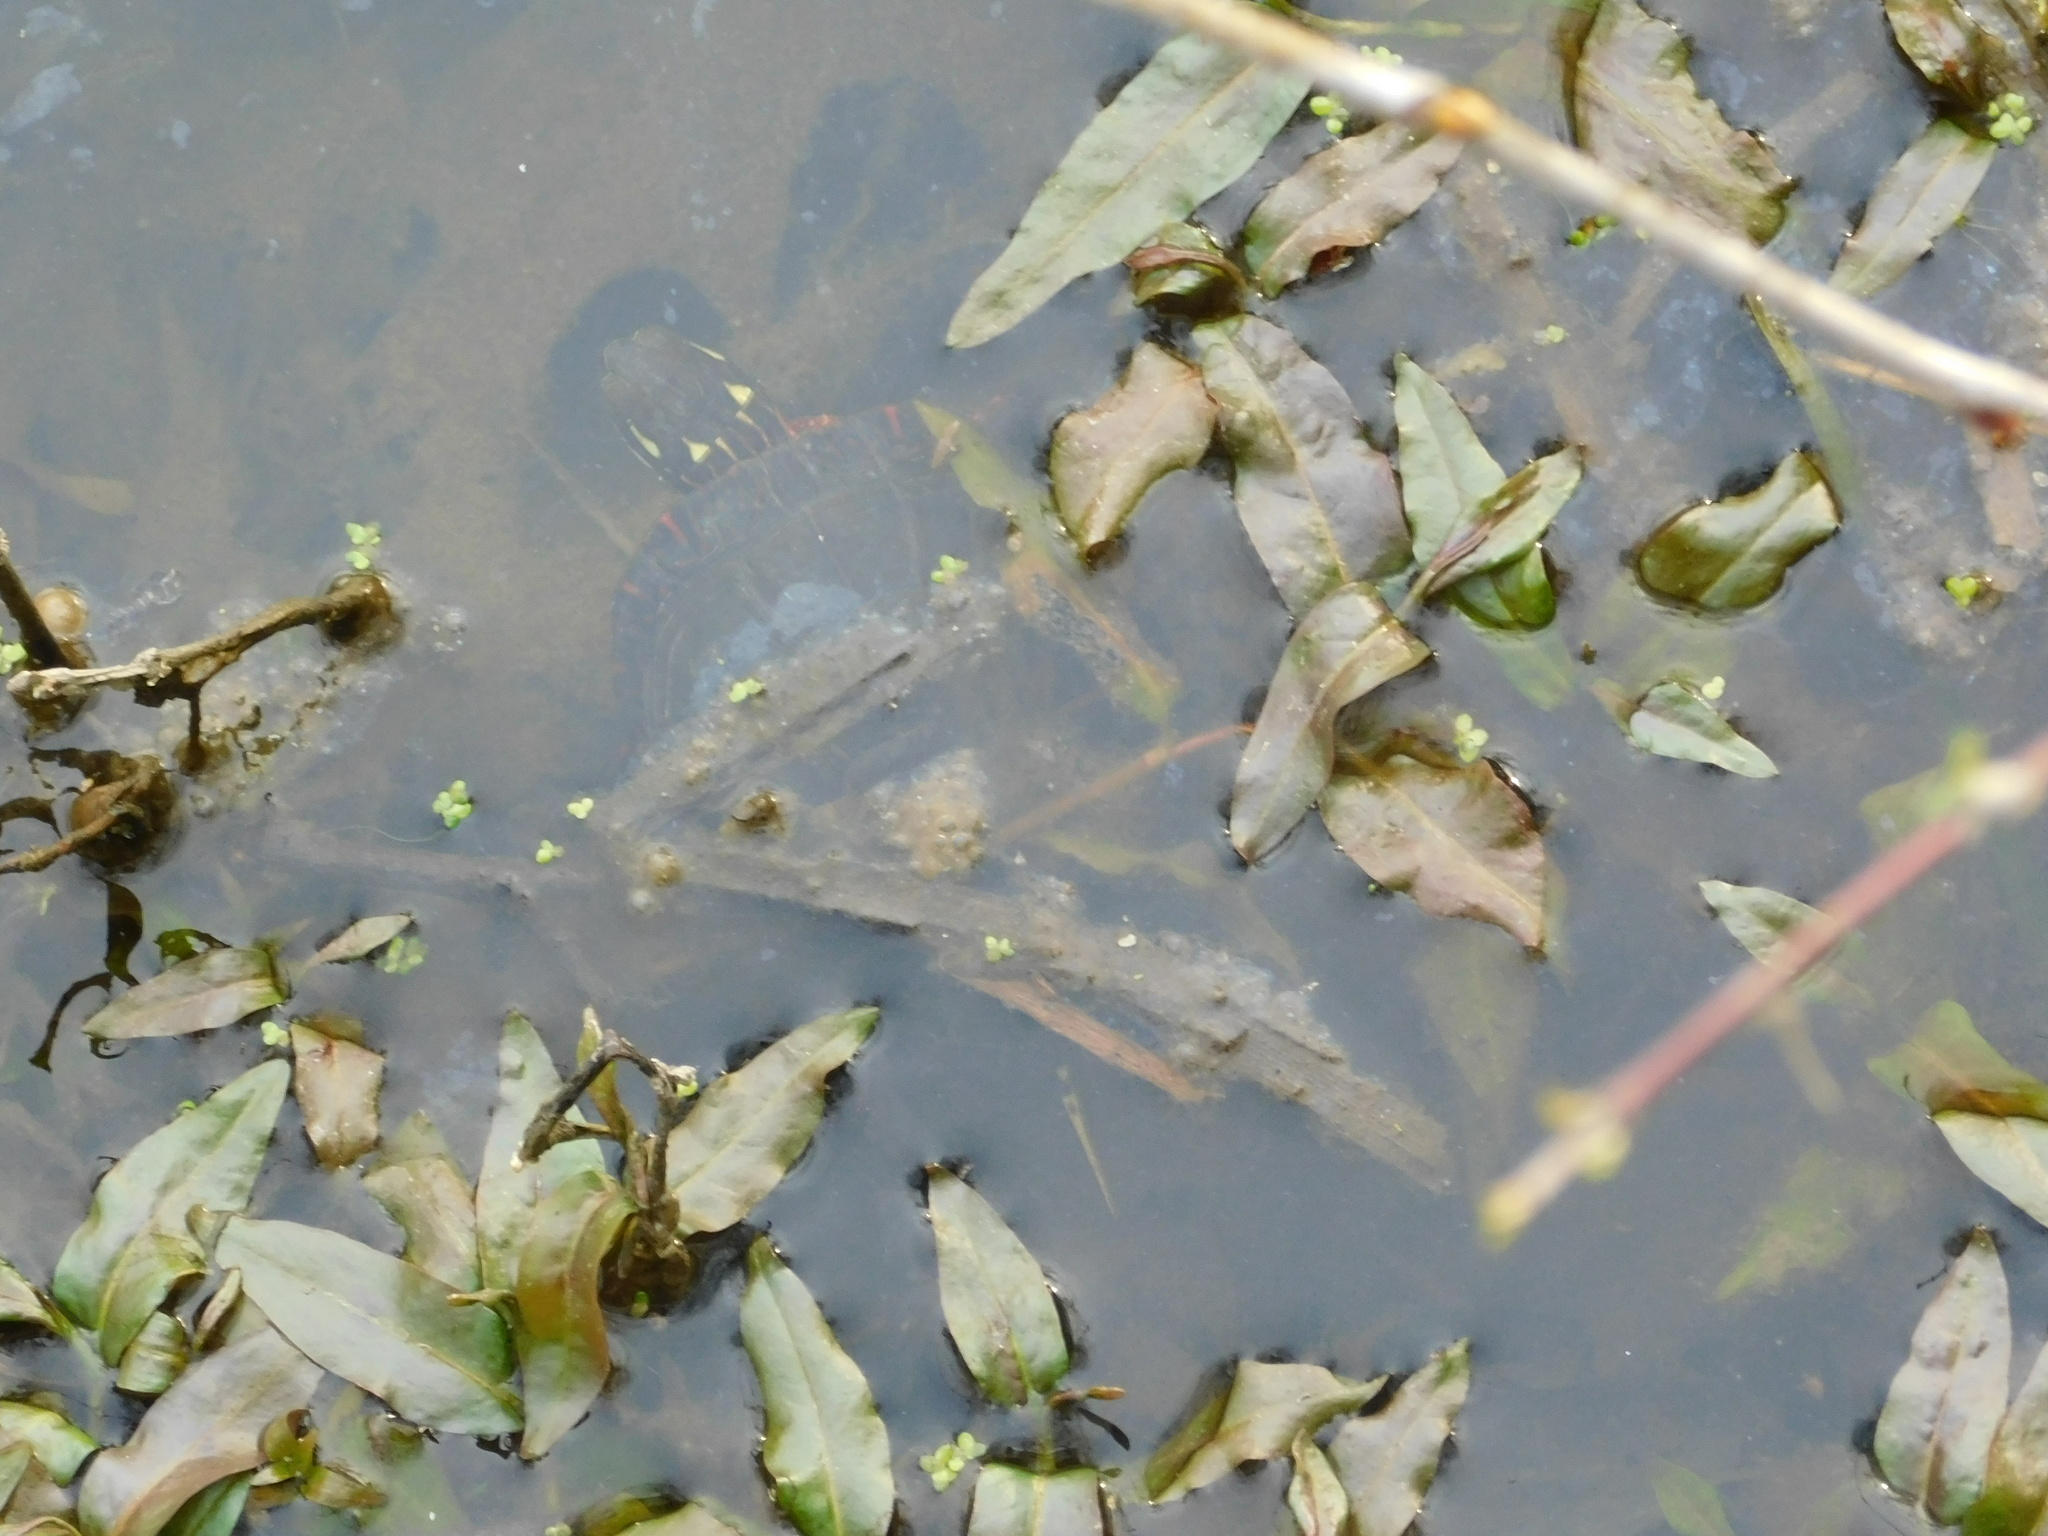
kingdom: Animalia
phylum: Chordata
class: Testudines
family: Emydidae
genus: Chrysemys
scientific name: Chrysemys picta
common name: Painted turtle
